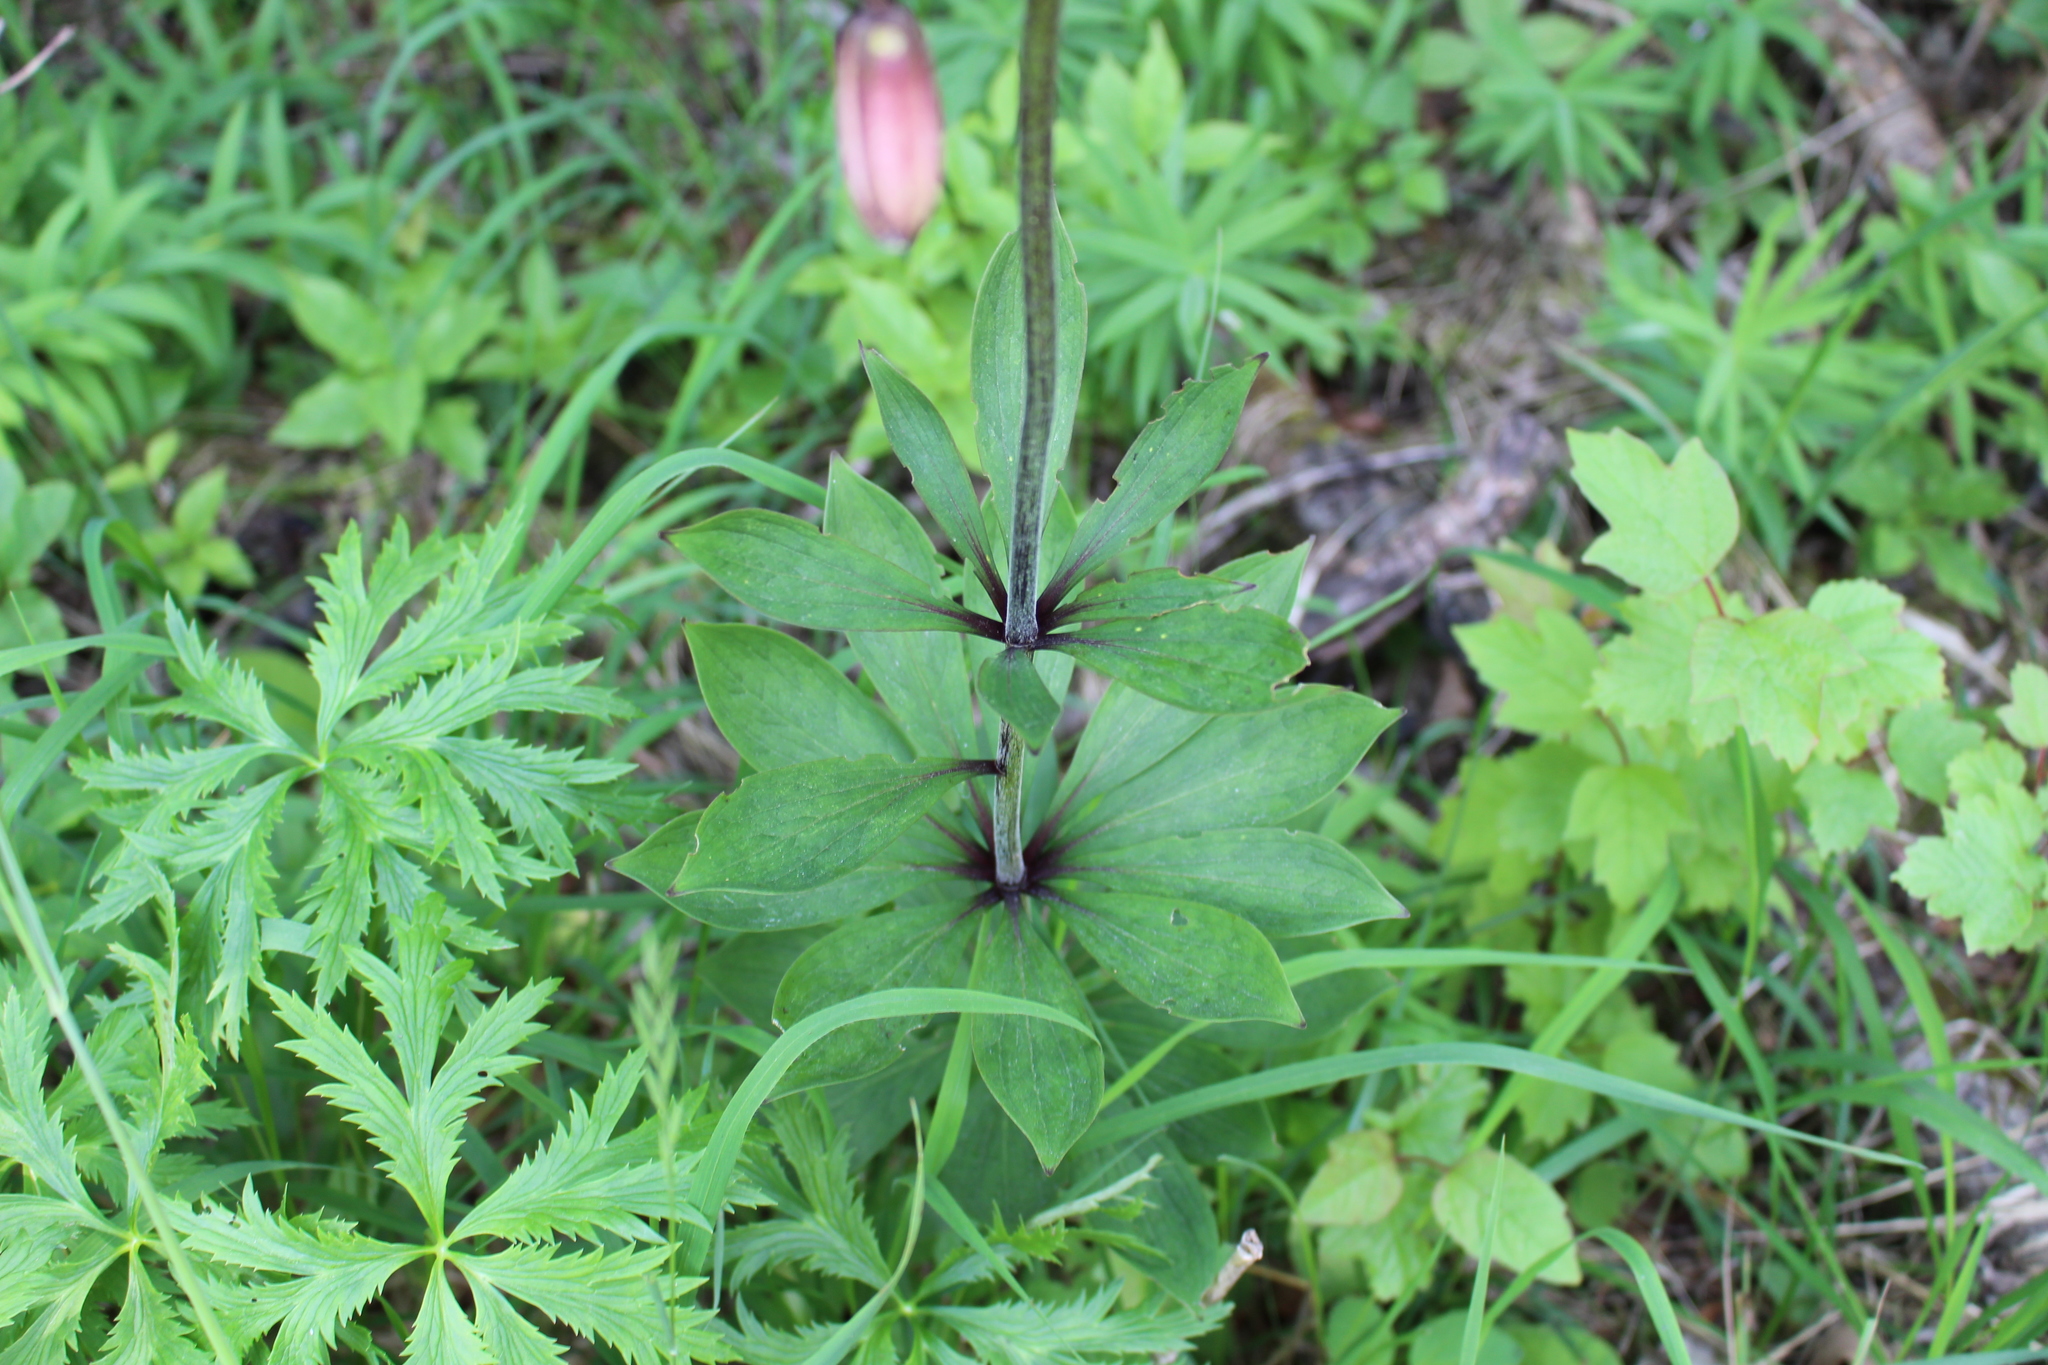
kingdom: Plantae
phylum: Tracheophyta
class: Liliopsida
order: Liliales
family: Liliaceae
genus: Lilium
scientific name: Lilium martagon
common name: Martagon lily
